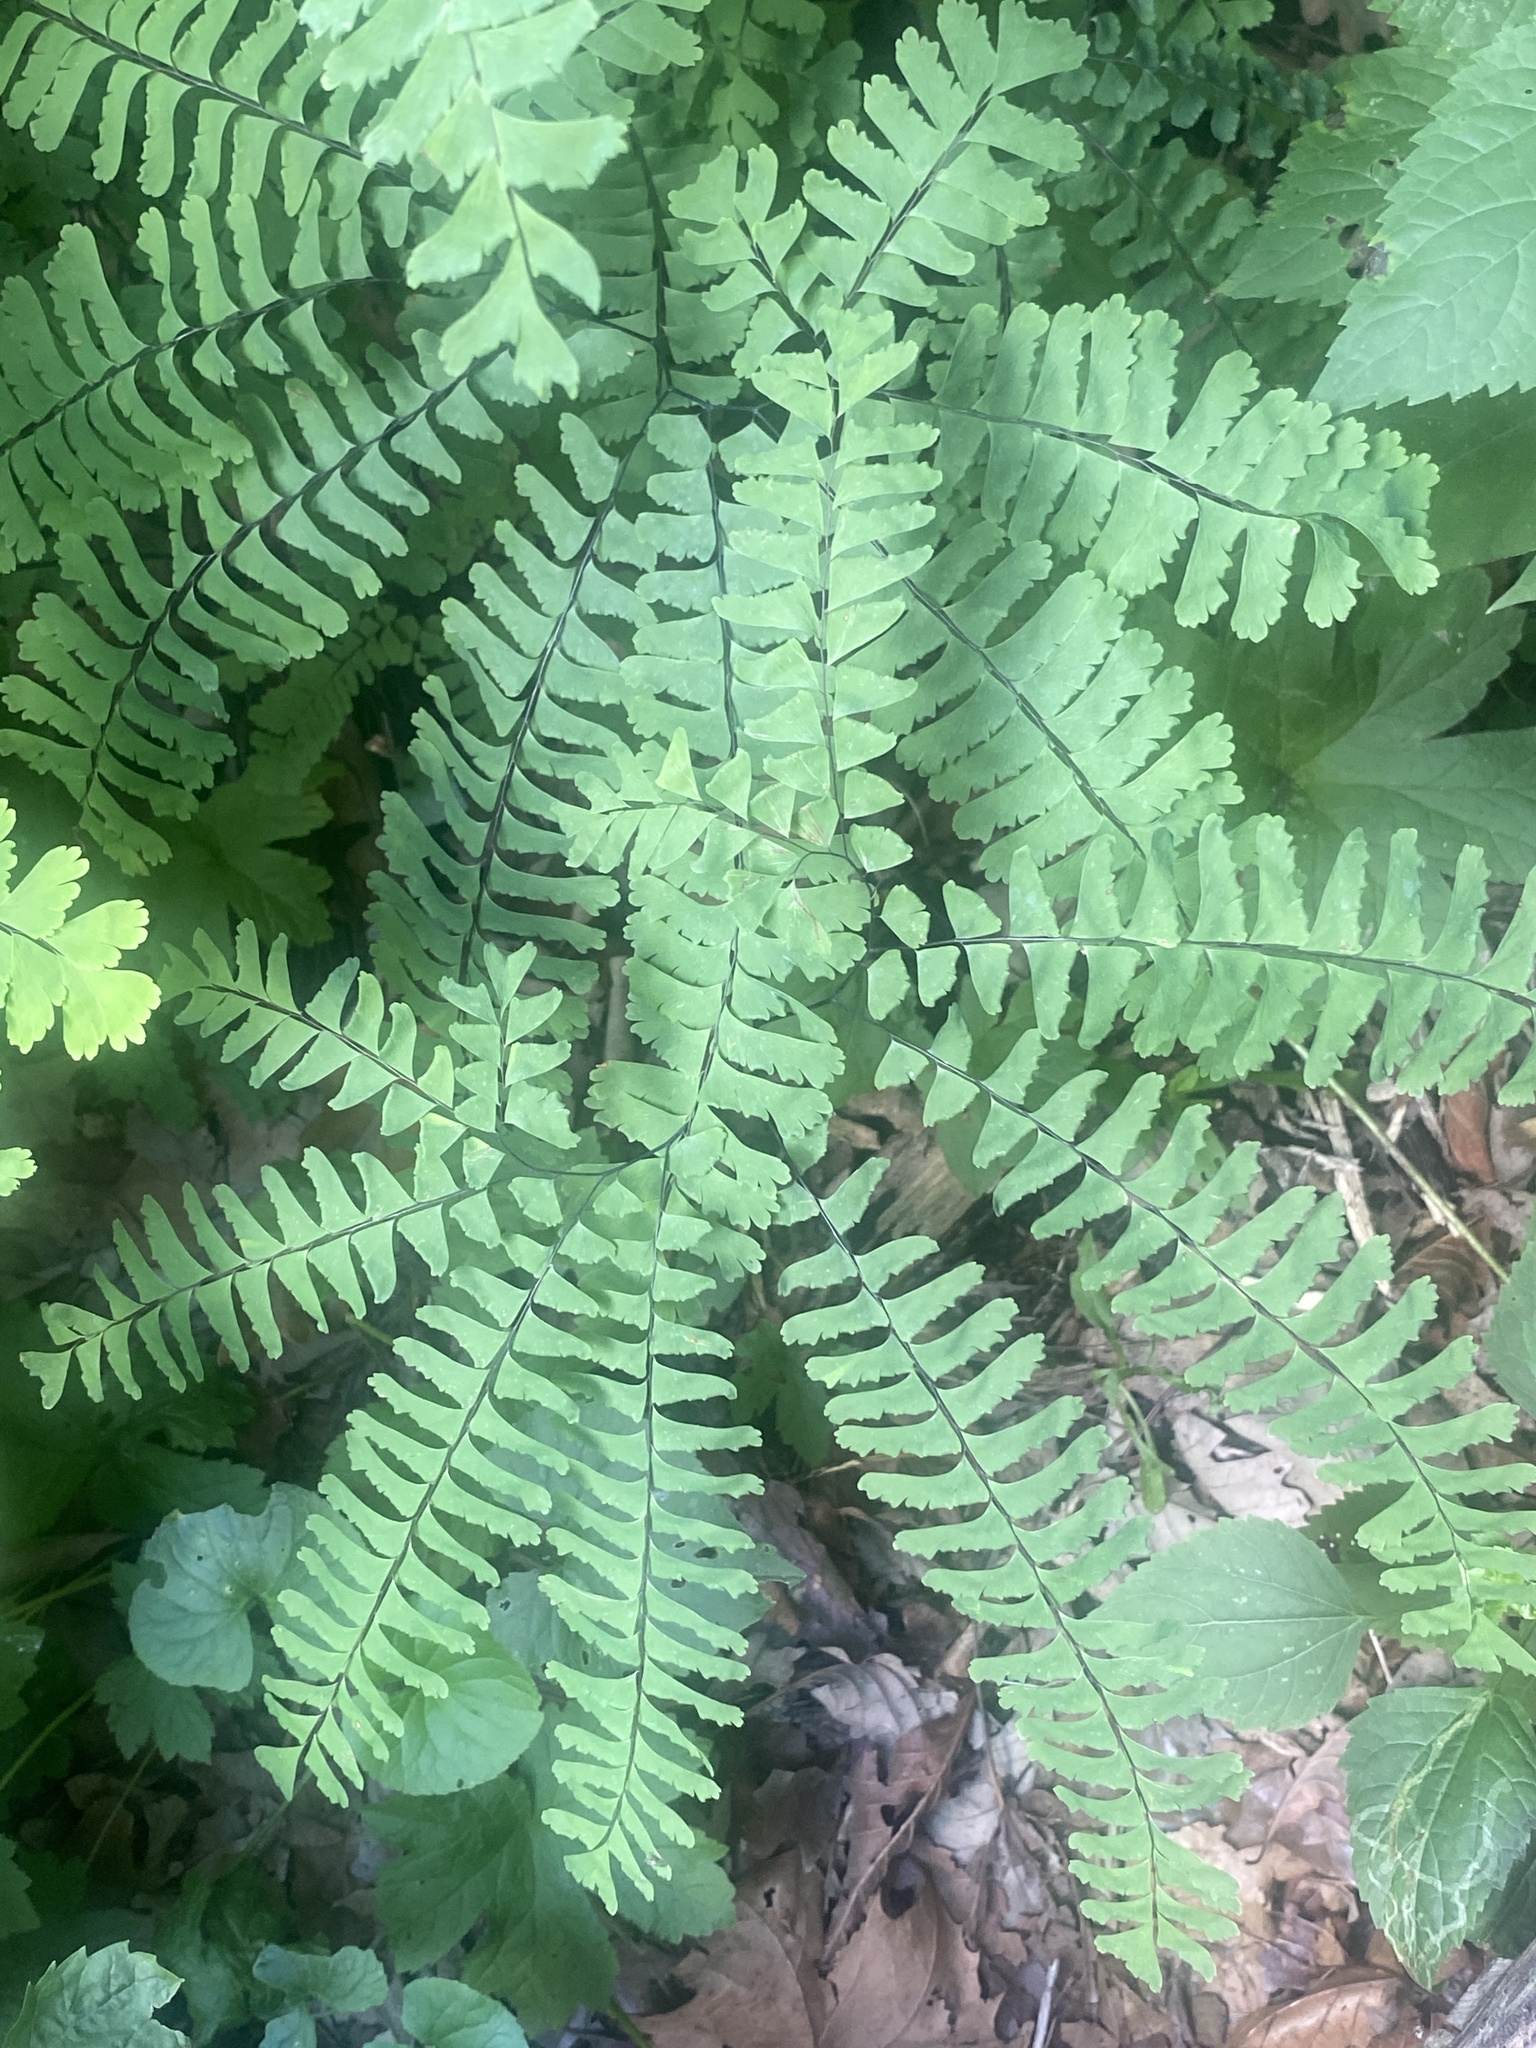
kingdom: Plantae
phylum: Tracheophyta
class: Polypodiopsida
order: Polypodiales
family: Pteridaceae
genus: Adiantum
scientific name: Adiantum pedatum
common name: Five-finger fern
